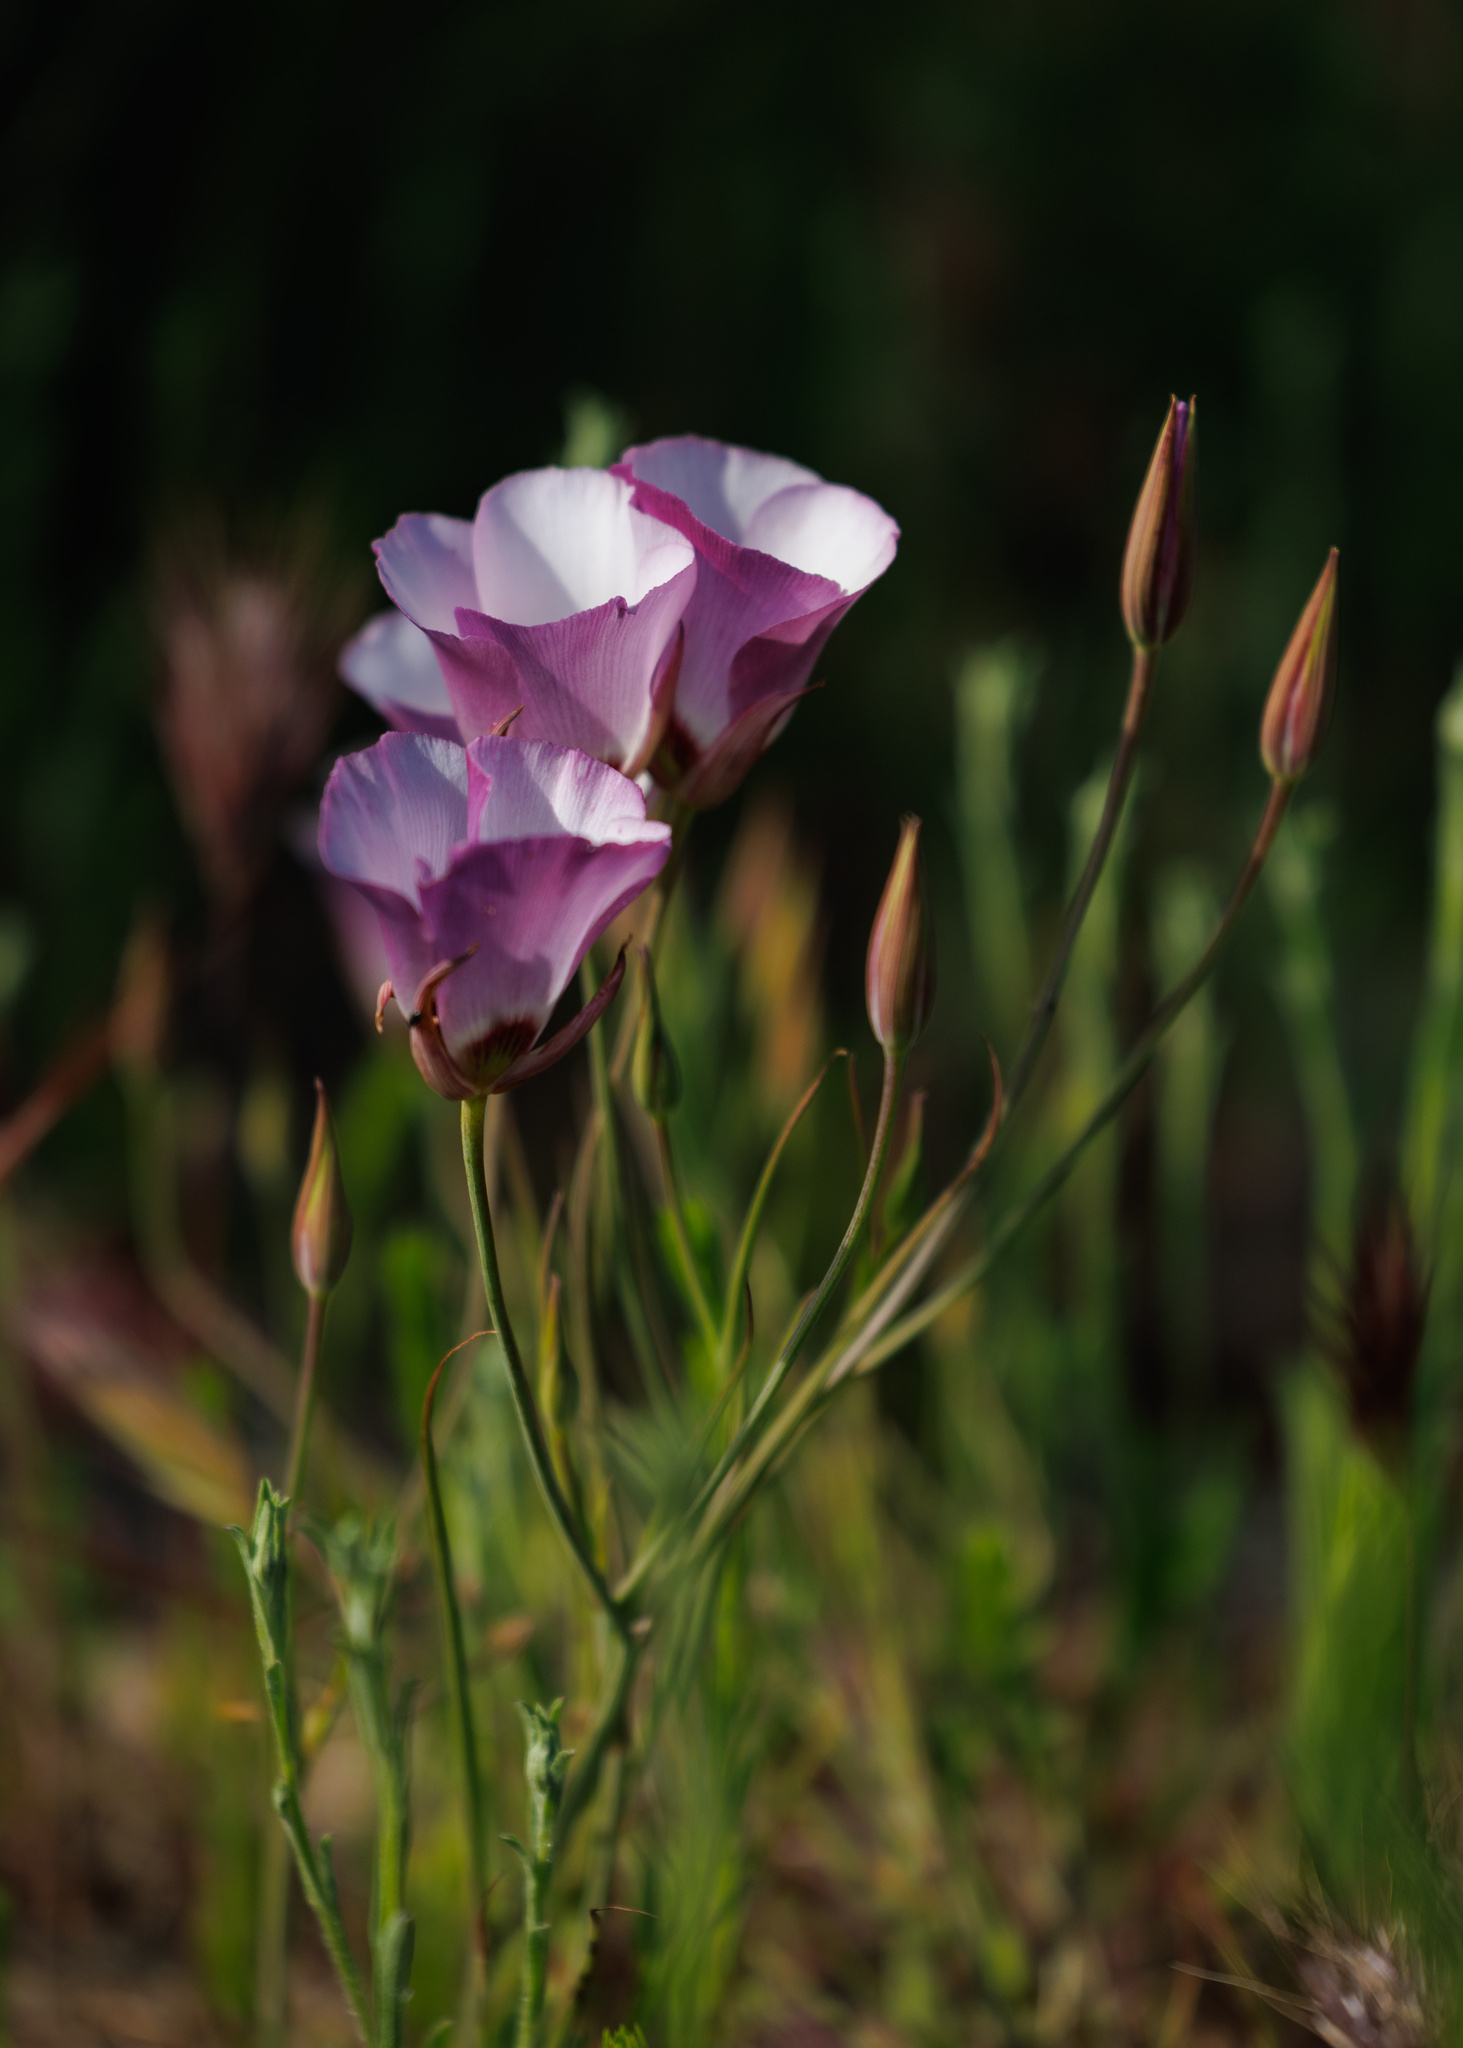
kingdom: Plantae
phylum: Tracheophyta
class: Liliopsida
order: Liliales
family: Liliaceae
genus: Calochortus
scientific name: Calochortus catalinae
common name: Catalina mariposa-lily
